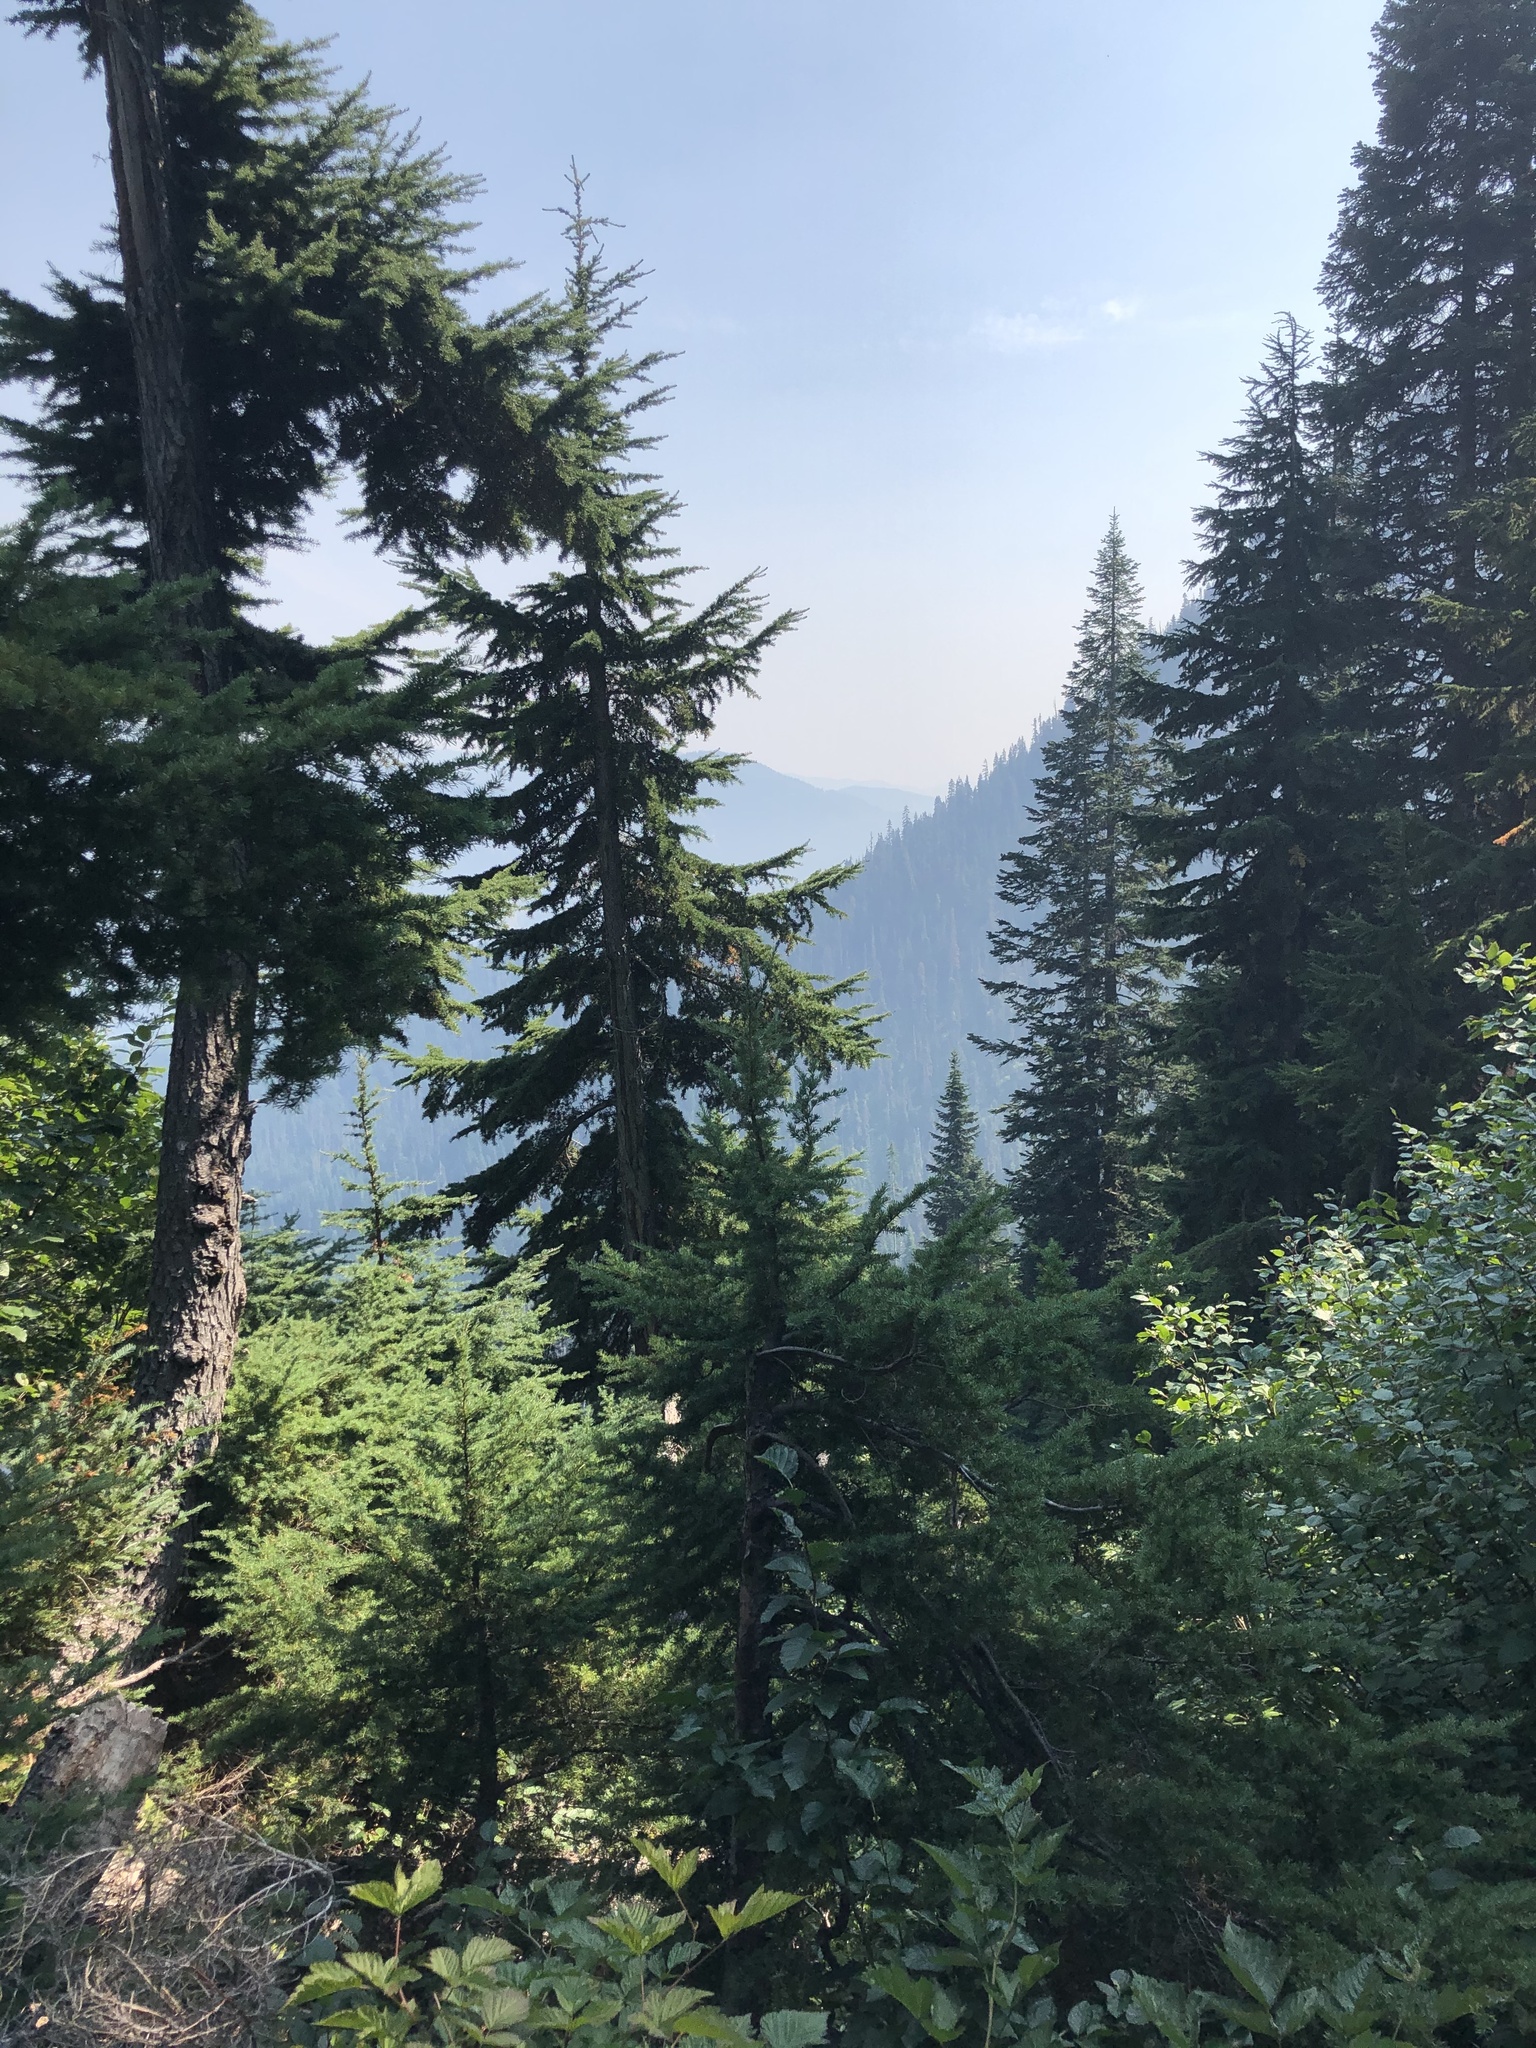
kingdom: Plantae
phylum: Tracheophyta
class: Pinopsida
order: Pinales
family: Pinaceae
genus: Tsuga
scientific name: Tsuga mertensiana
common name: Mountain hemlock
